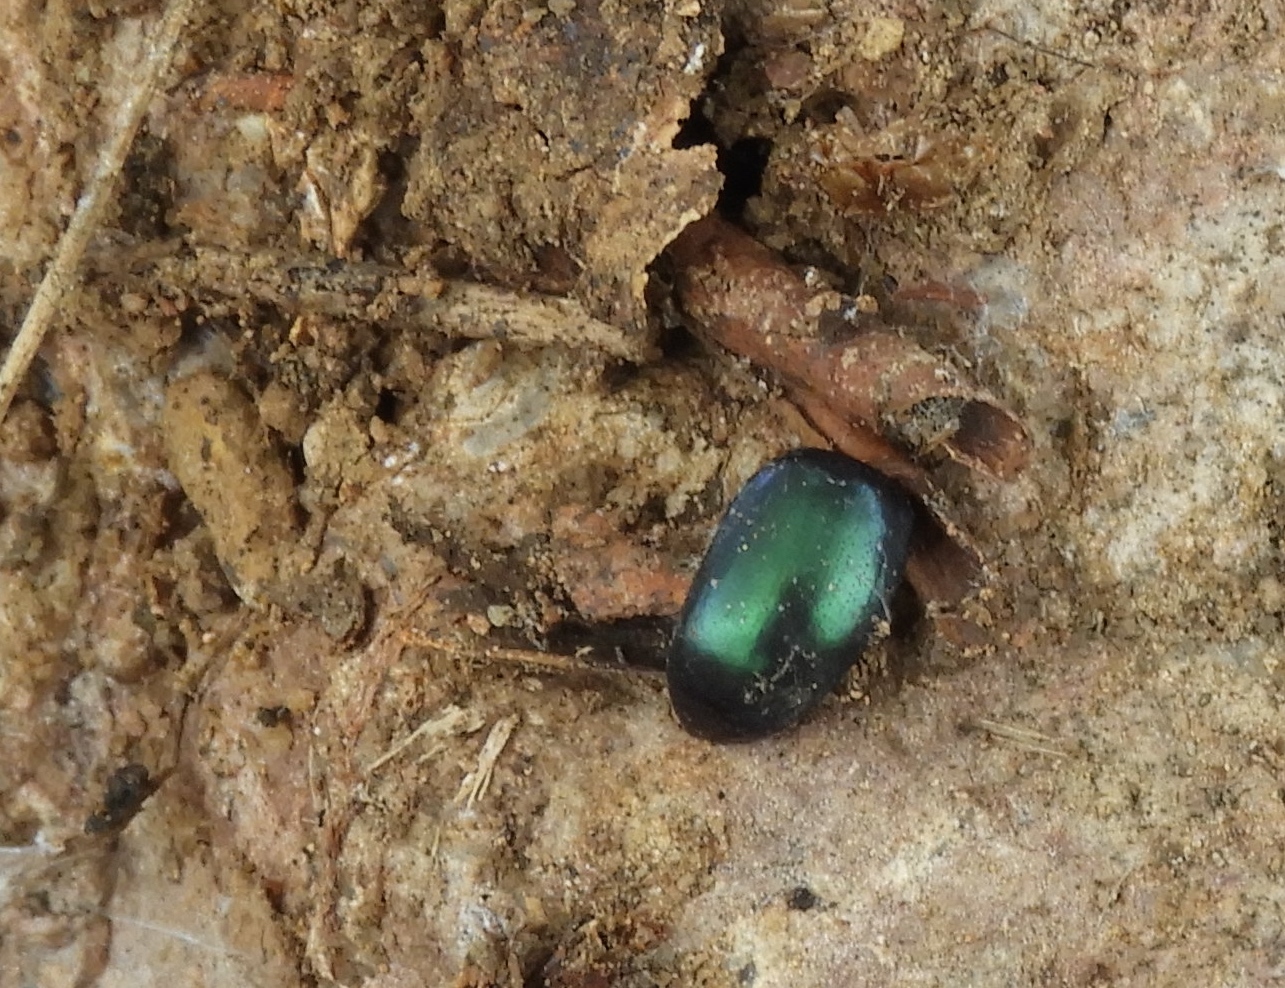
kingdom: Animalia
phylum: Arthropoda
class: Insecta
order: Coleoptera
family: Chrysomelidae
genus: Leptinotarsa
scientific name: Leptinotarsa
